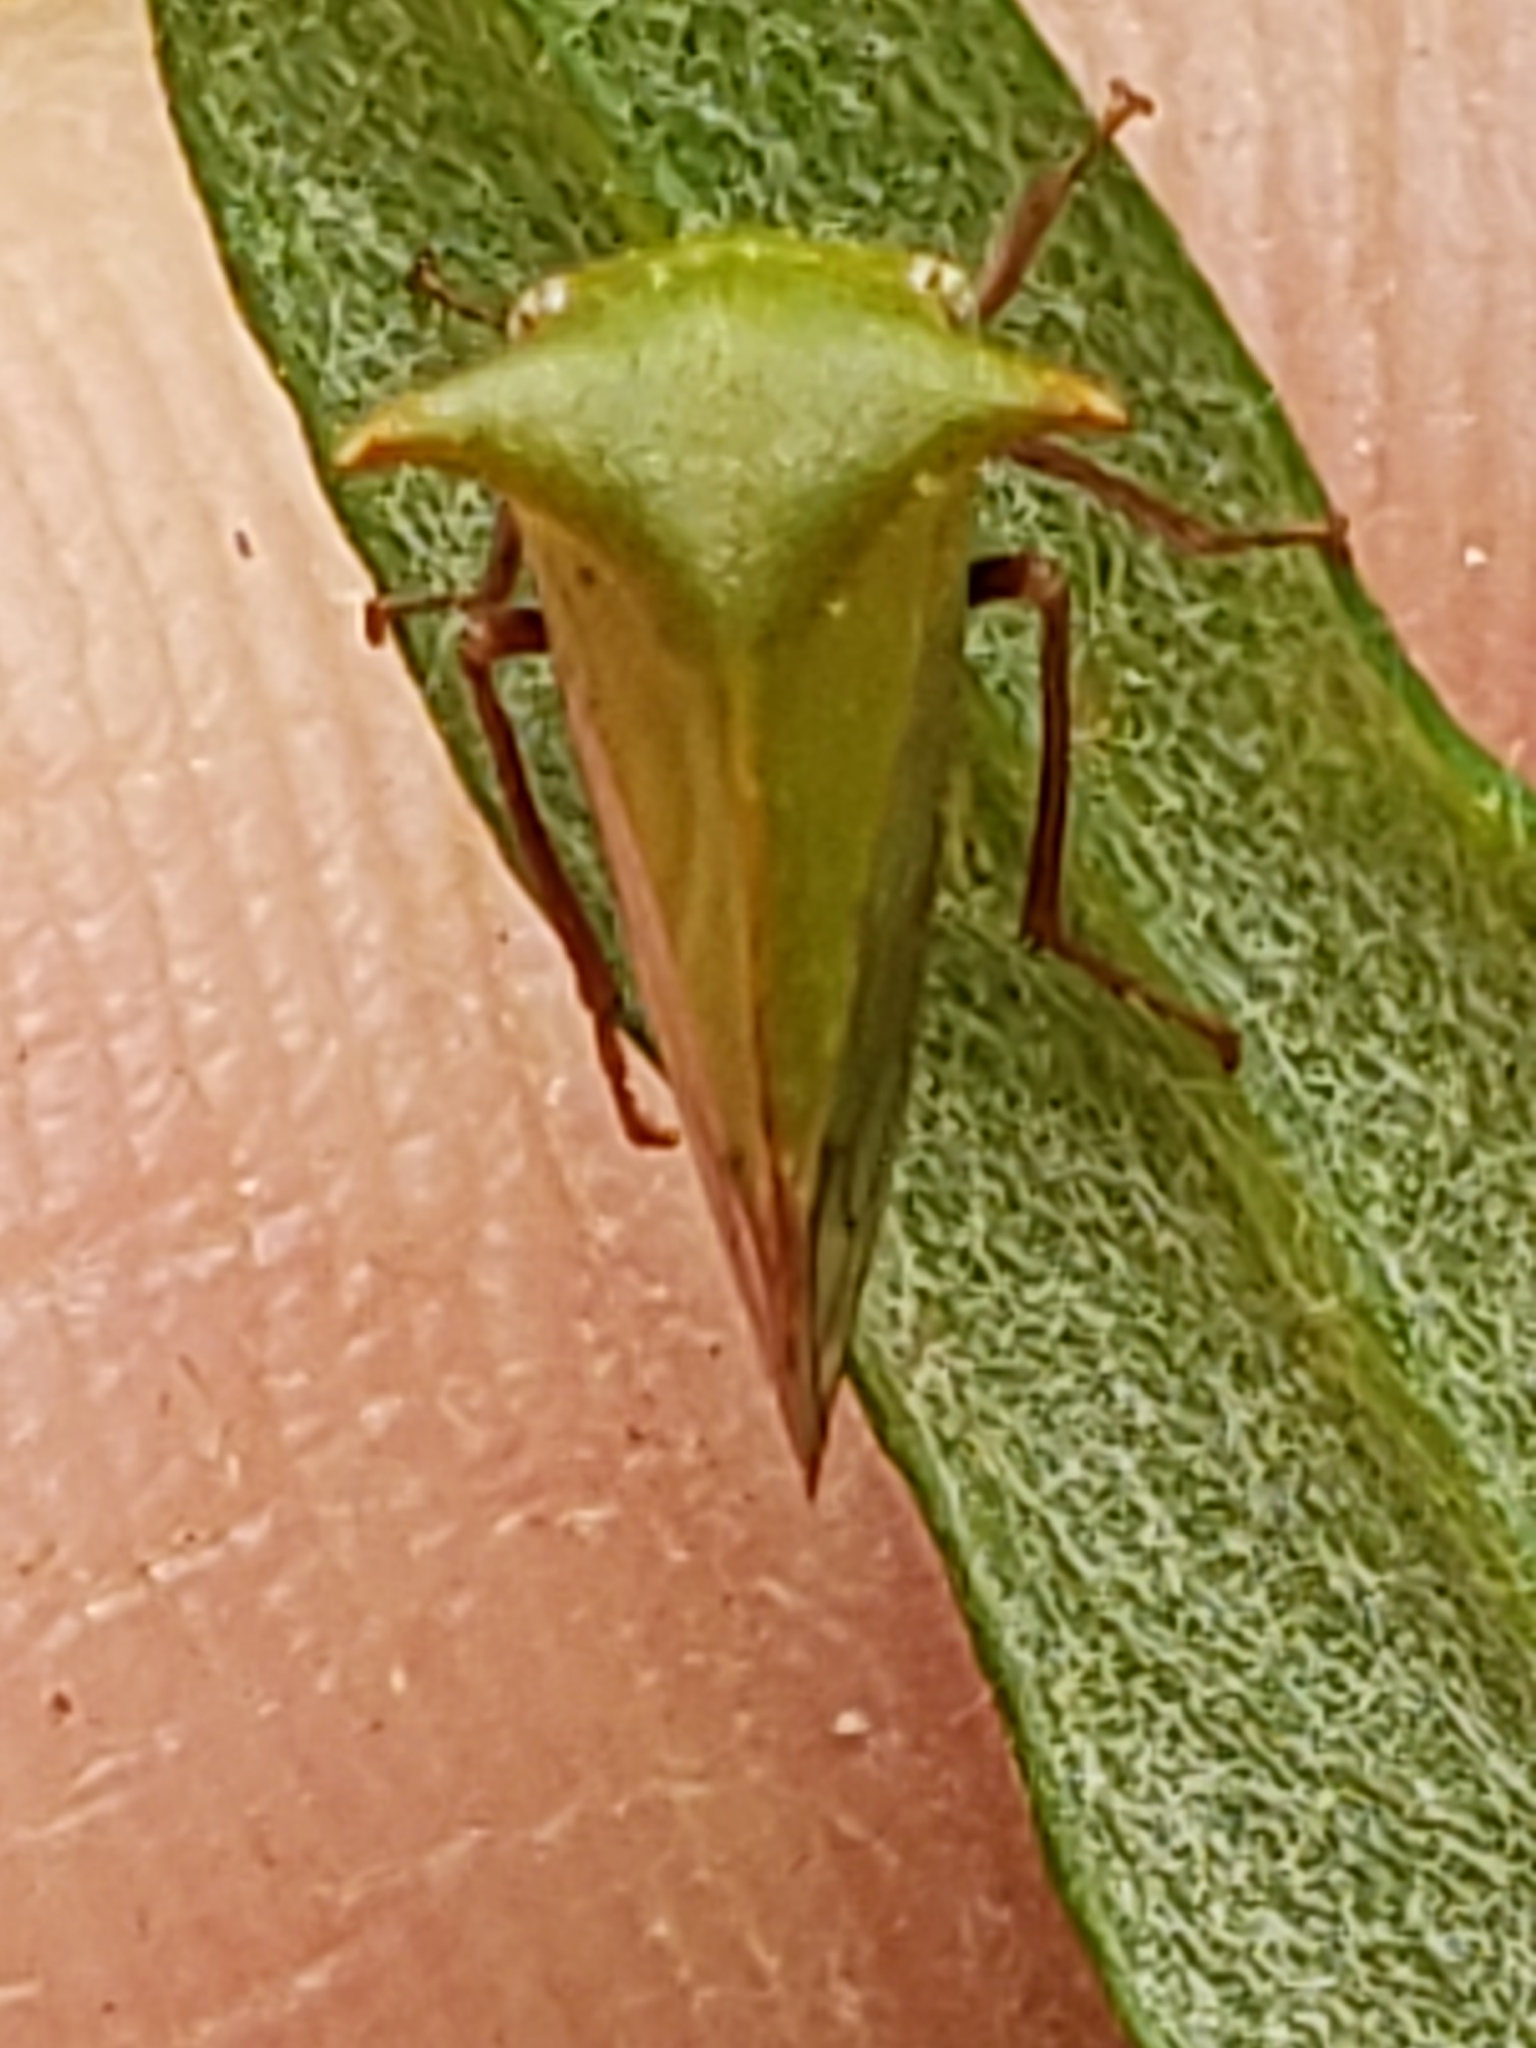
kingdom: Animalia
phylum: Arthropoda
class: Insecta
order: Hemiptera
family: Membracidae
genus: Stictocephala
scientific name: Stictocephala brevitylus
